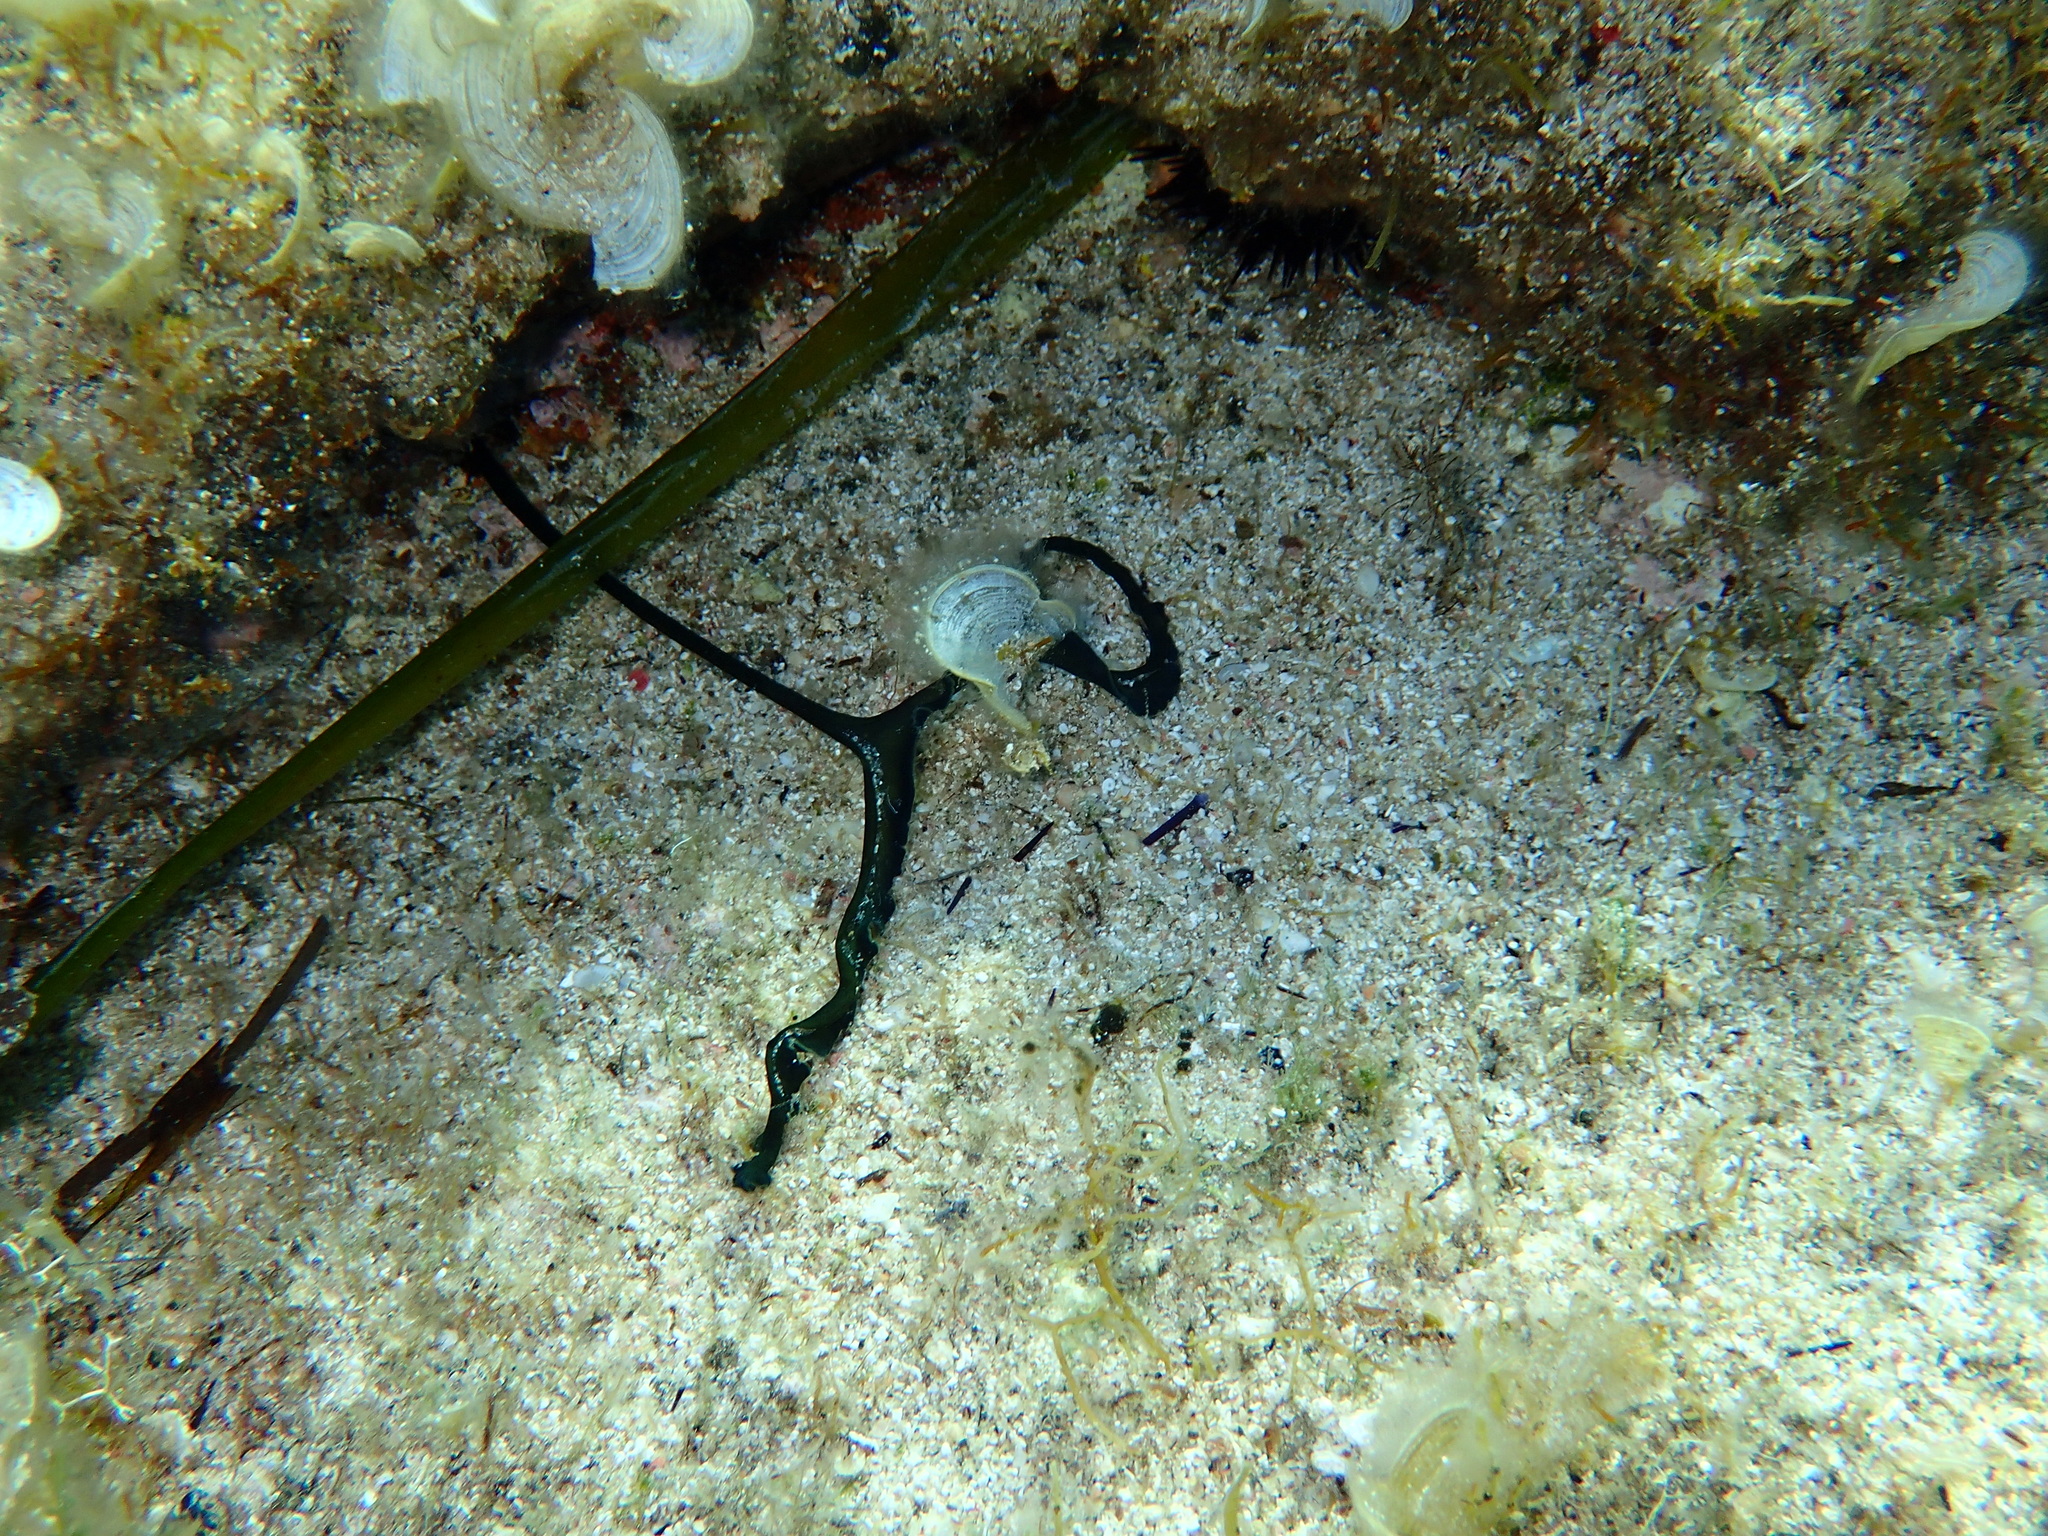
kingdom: Animalia
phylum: Annelida
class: Polychaeta
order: Echiuroidea
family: Bonelliidae
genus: Bonellia
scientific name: Bonellia viridis
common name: Green spoon worm
